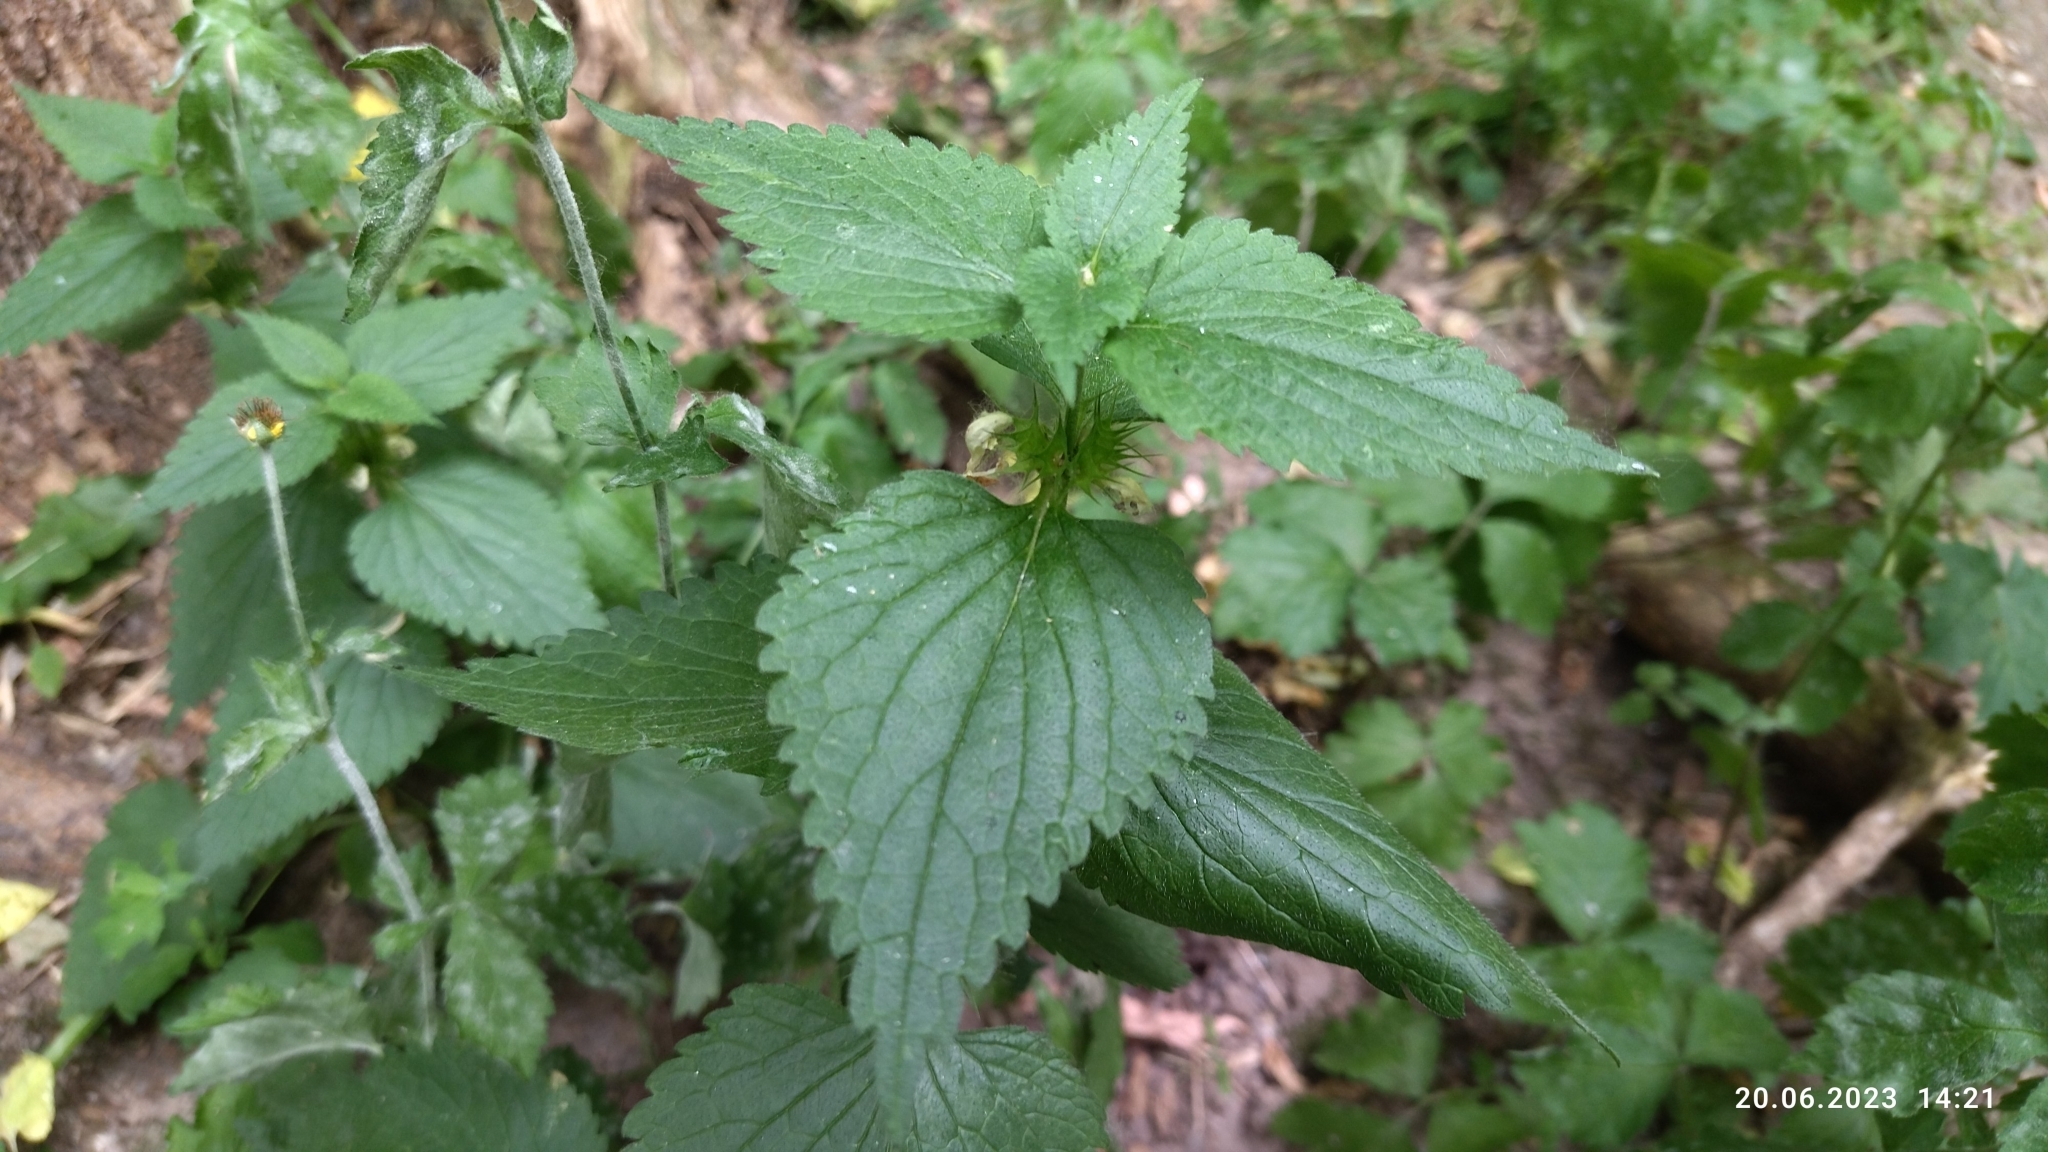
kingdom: Plantae
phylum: Tracheophyta
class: Magnoliopsida
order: Lamiales
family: Lamiaceae
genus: Lamium
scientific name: Lamium album
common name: White dead-nettle
